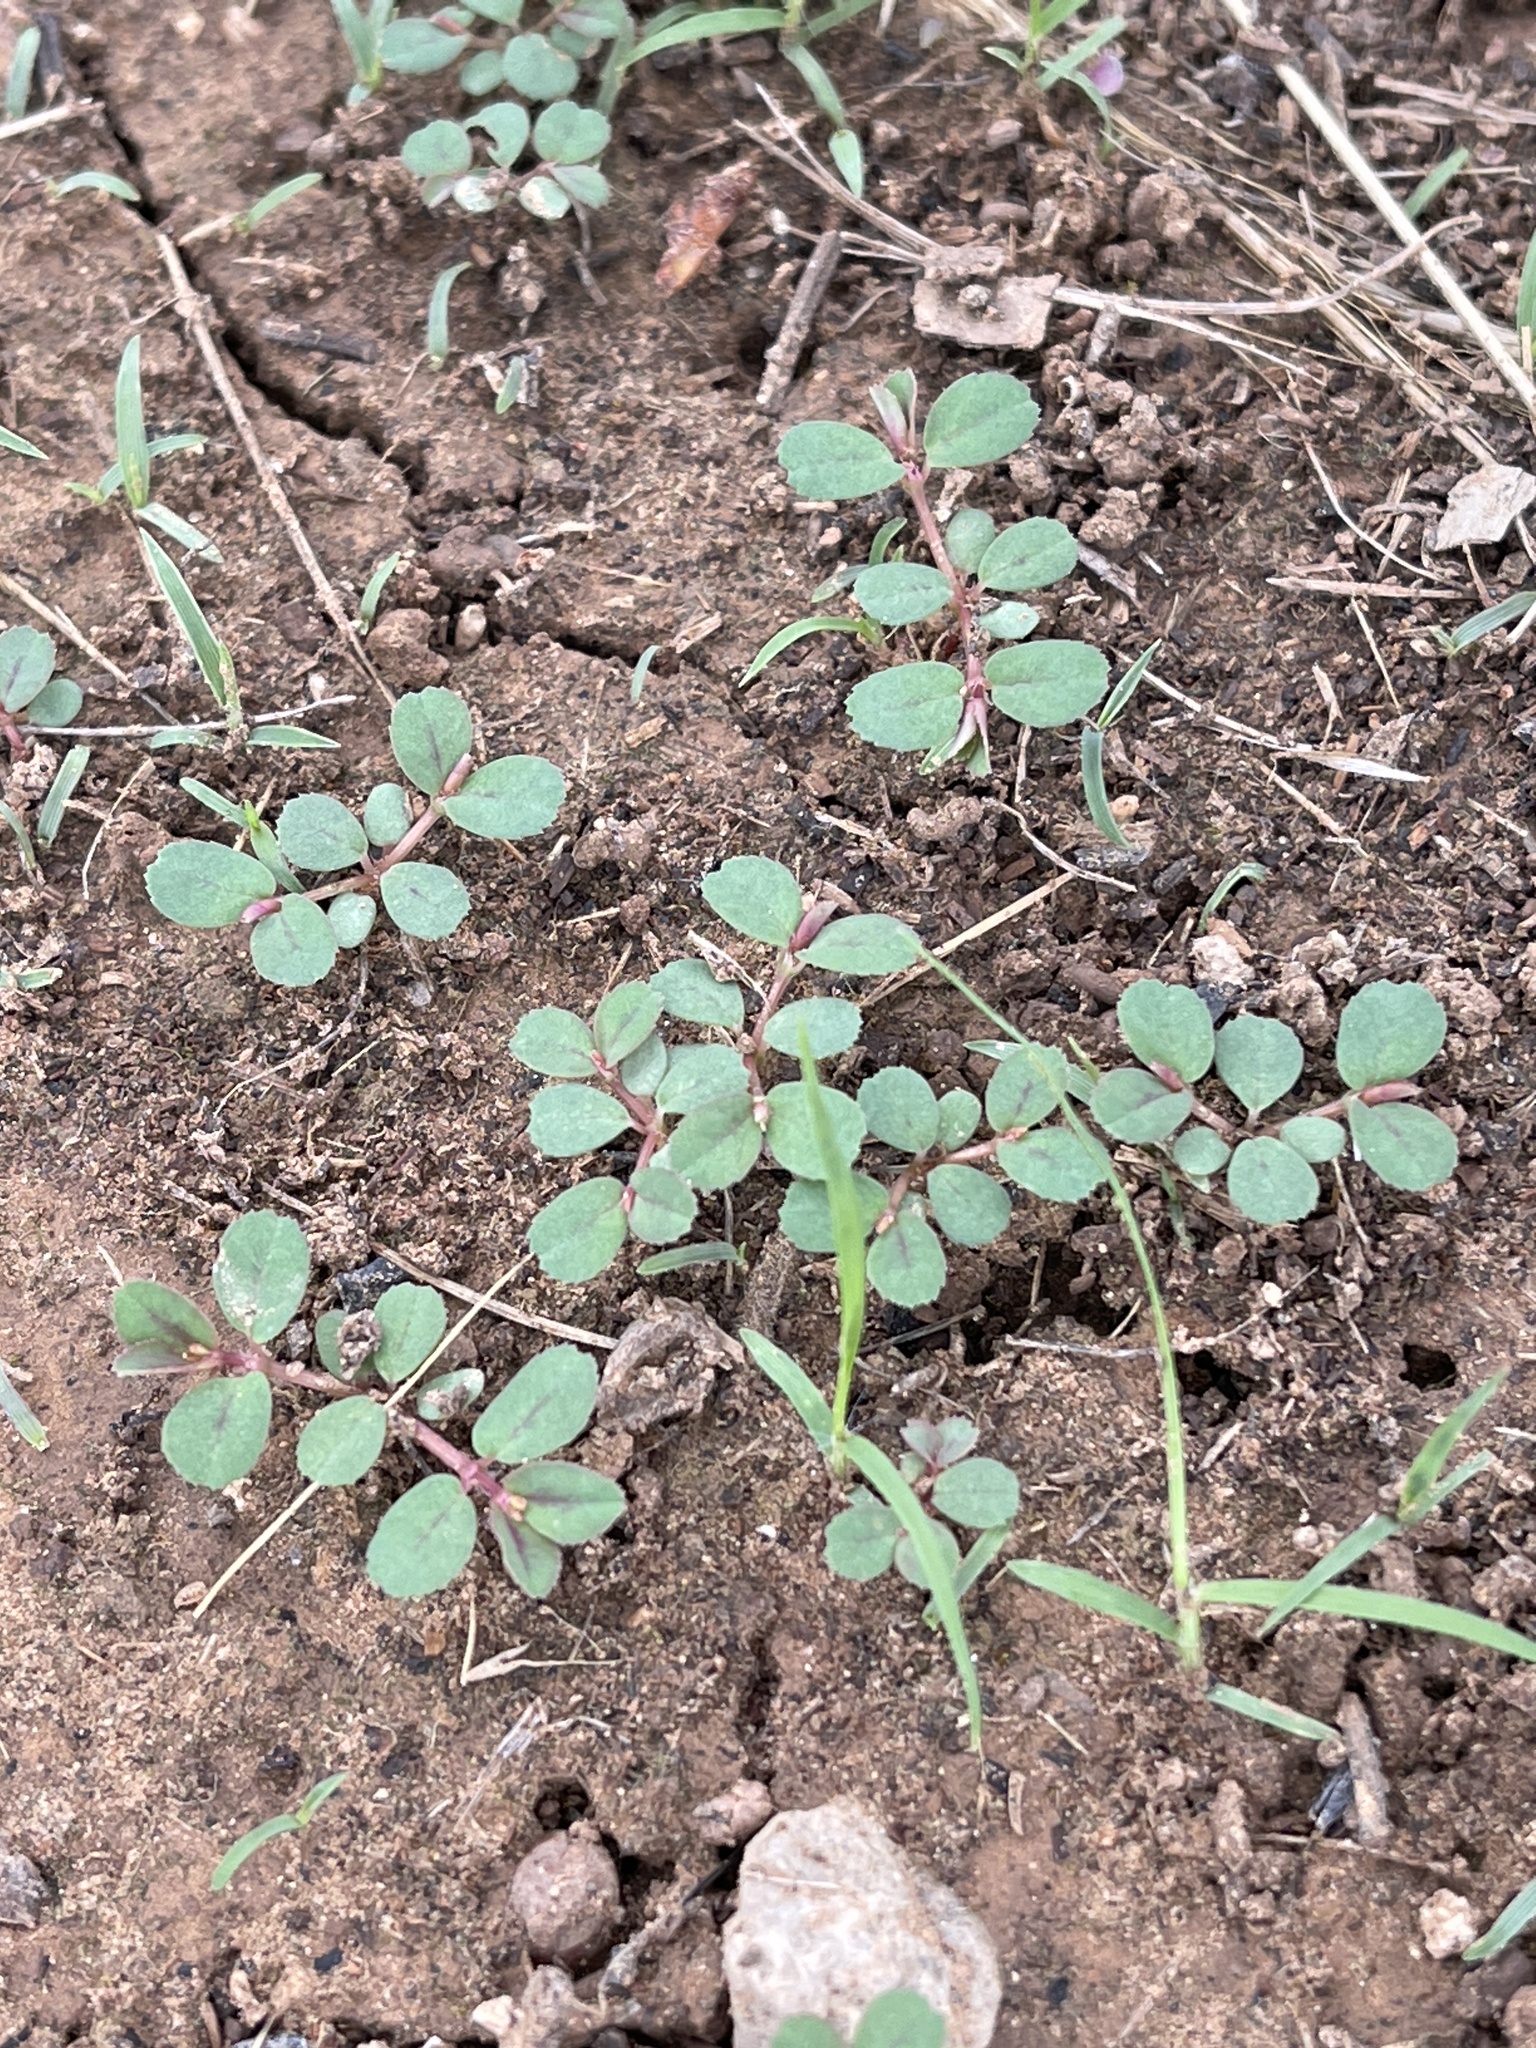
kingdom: Plantae
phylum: Tracheophyta
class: Magnoliopsida
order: Malpighiales
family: Euphorbiaceae
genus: Euphorbia
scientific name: Euphorbia serpillifolia
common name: Thyme-leaf spurge
